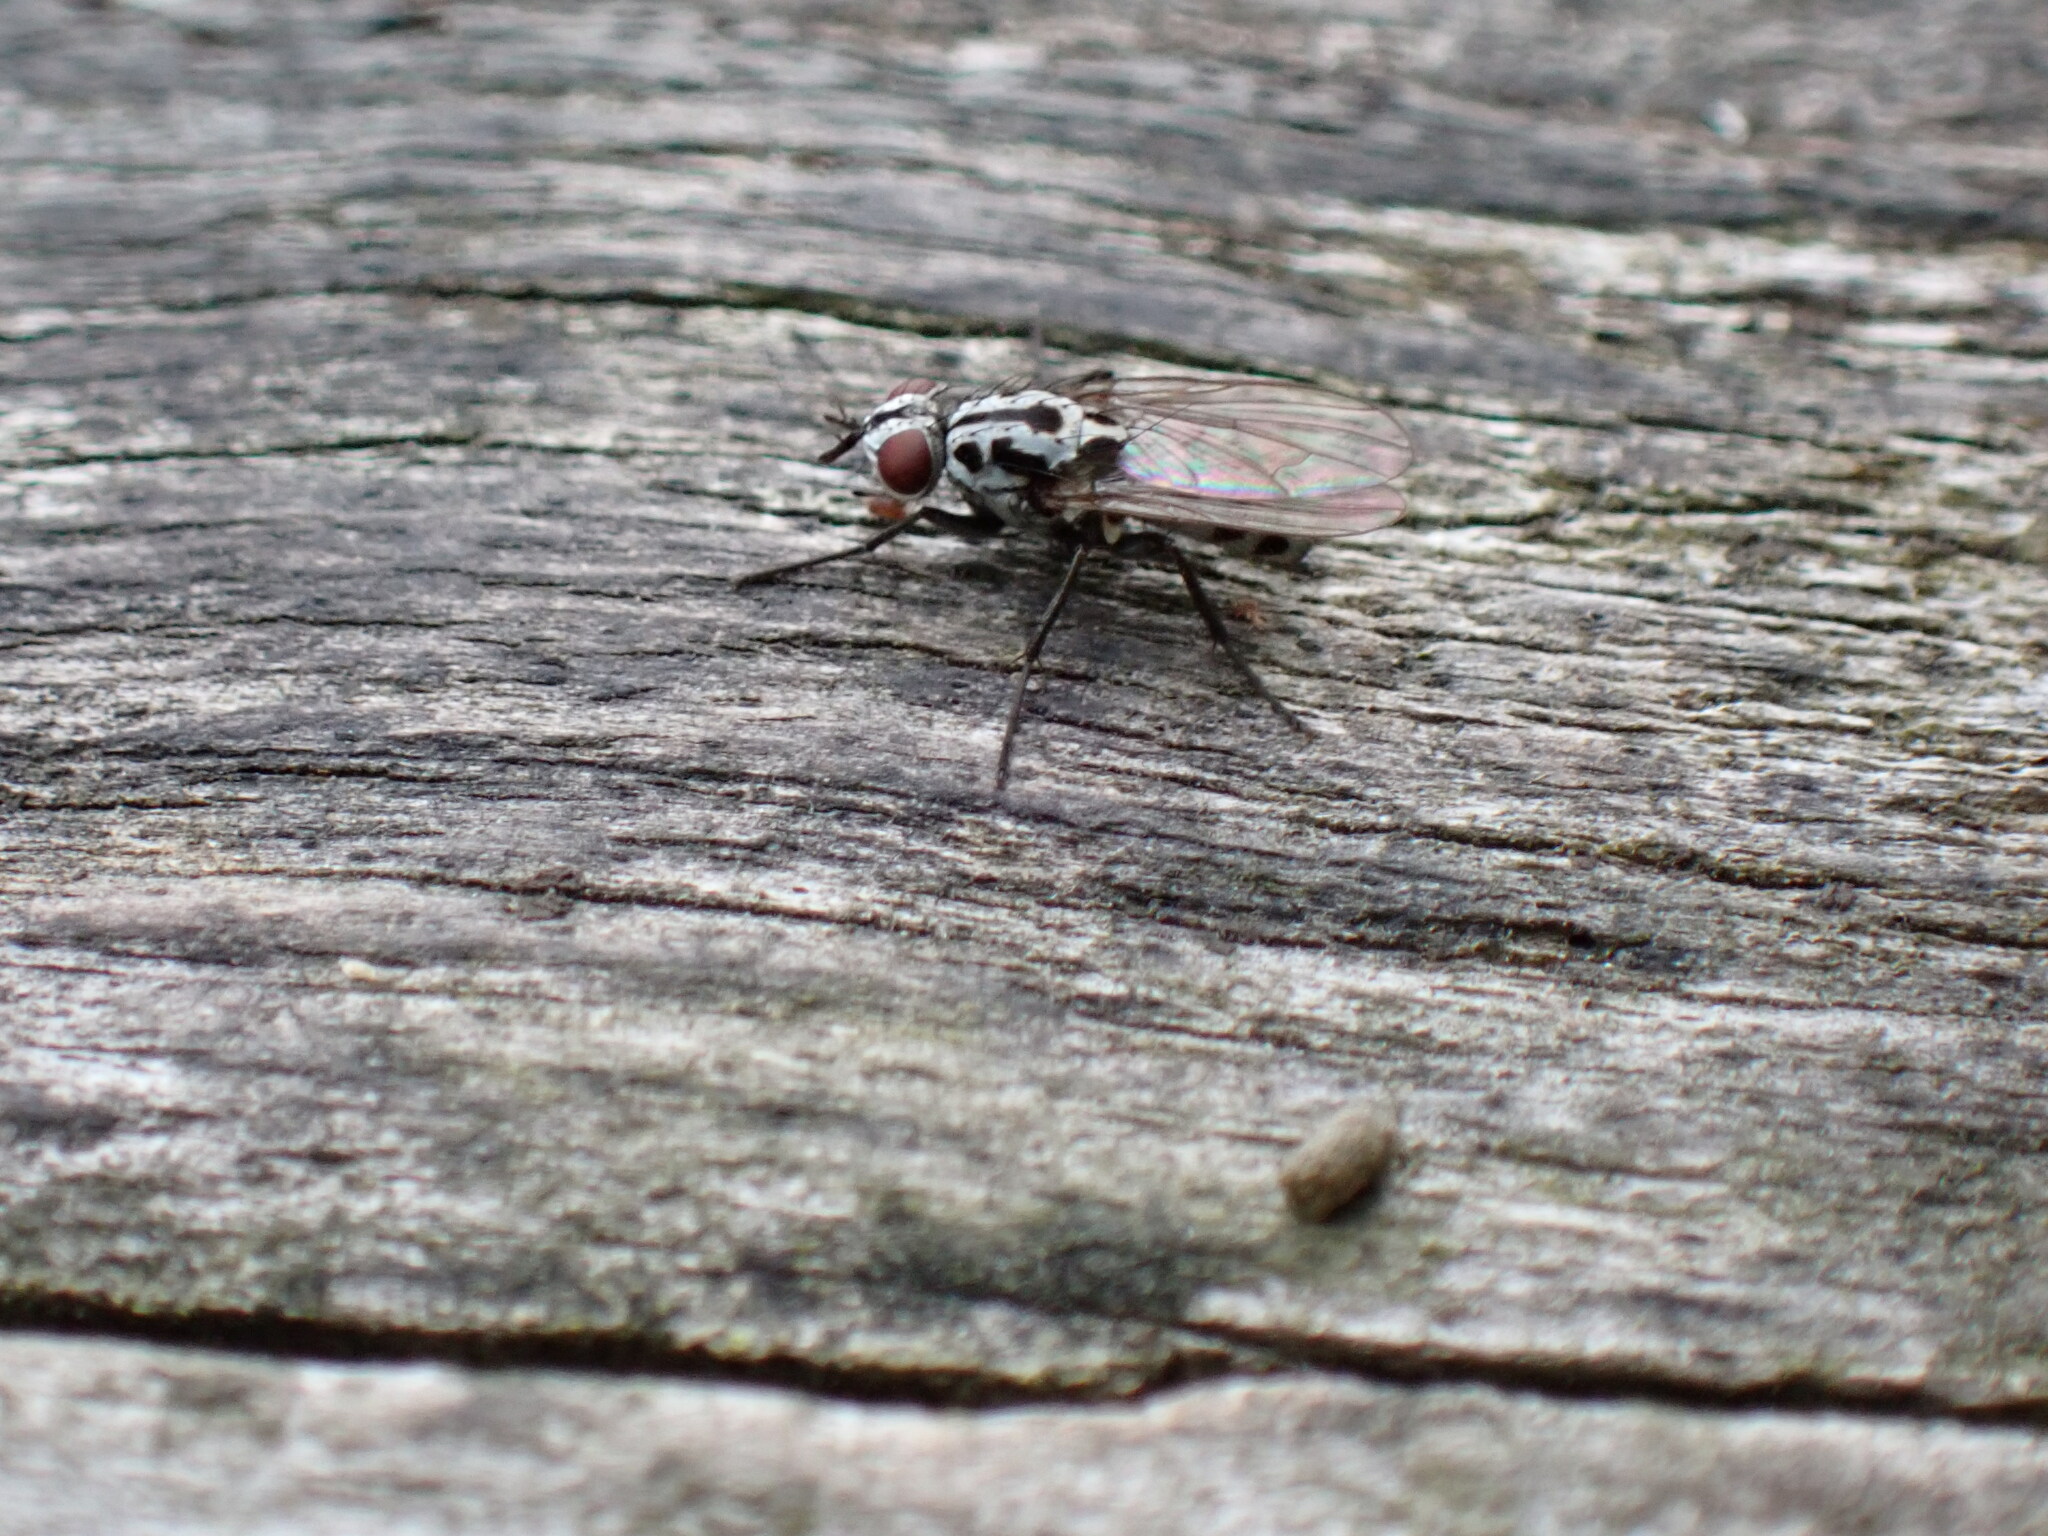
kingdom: Animalia
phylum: Arthropoda
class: Insecta
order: Diptera
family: Anthomyiidae
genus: Eustalomyia
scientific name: Eustalomyia hilaris
